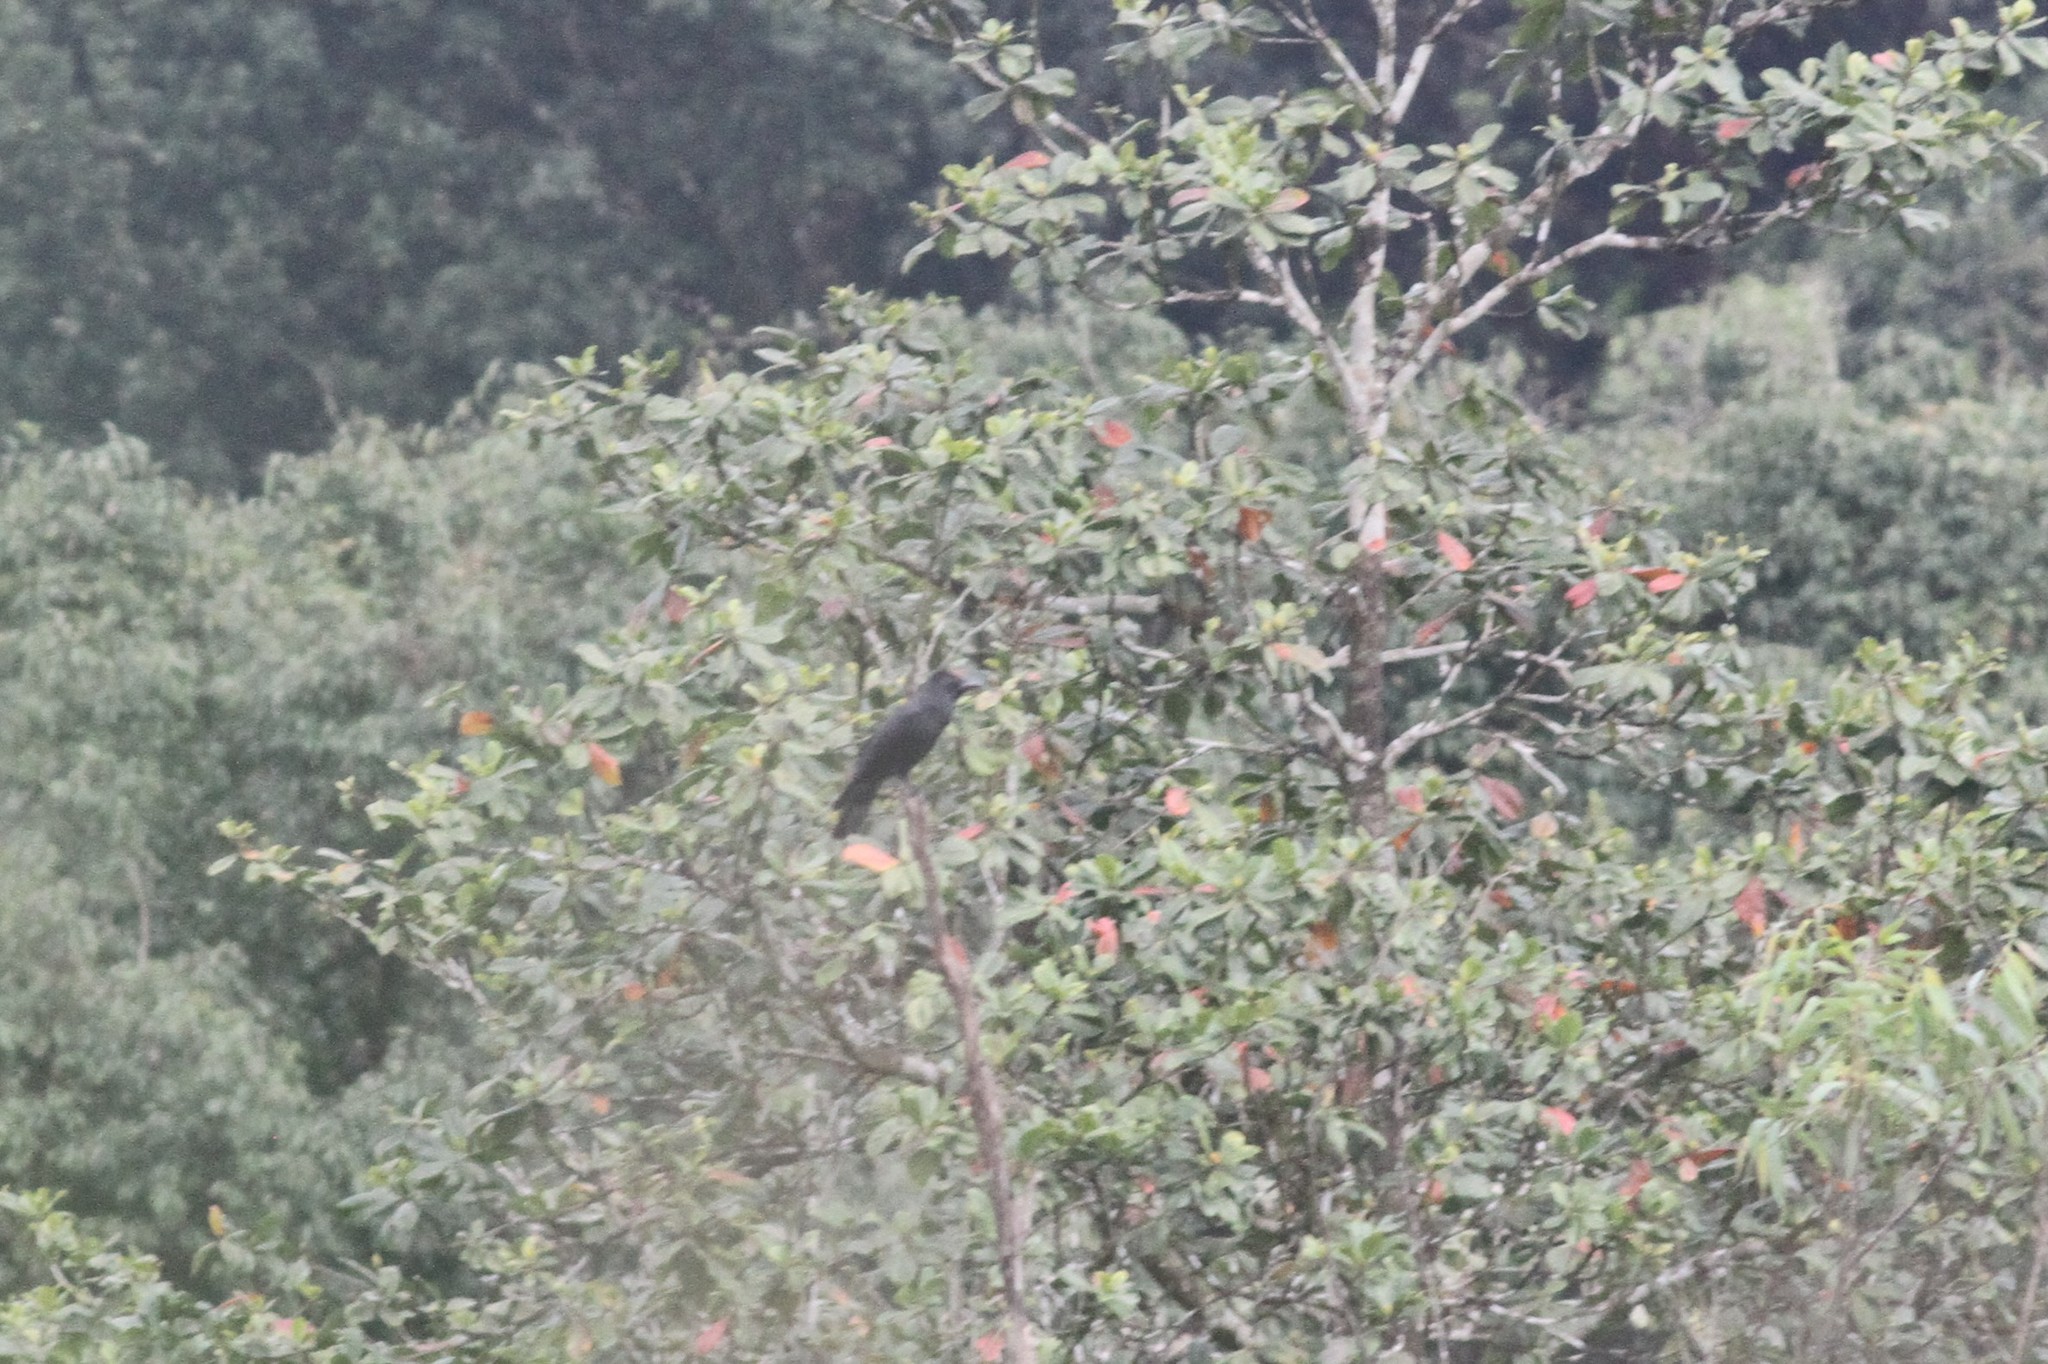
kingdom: Animalia
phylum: Chordata
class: Aves
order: Passeriformes
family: Corvidae
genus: Corvus
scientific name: Corvus macrorhynchos
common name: Large-billed crow
